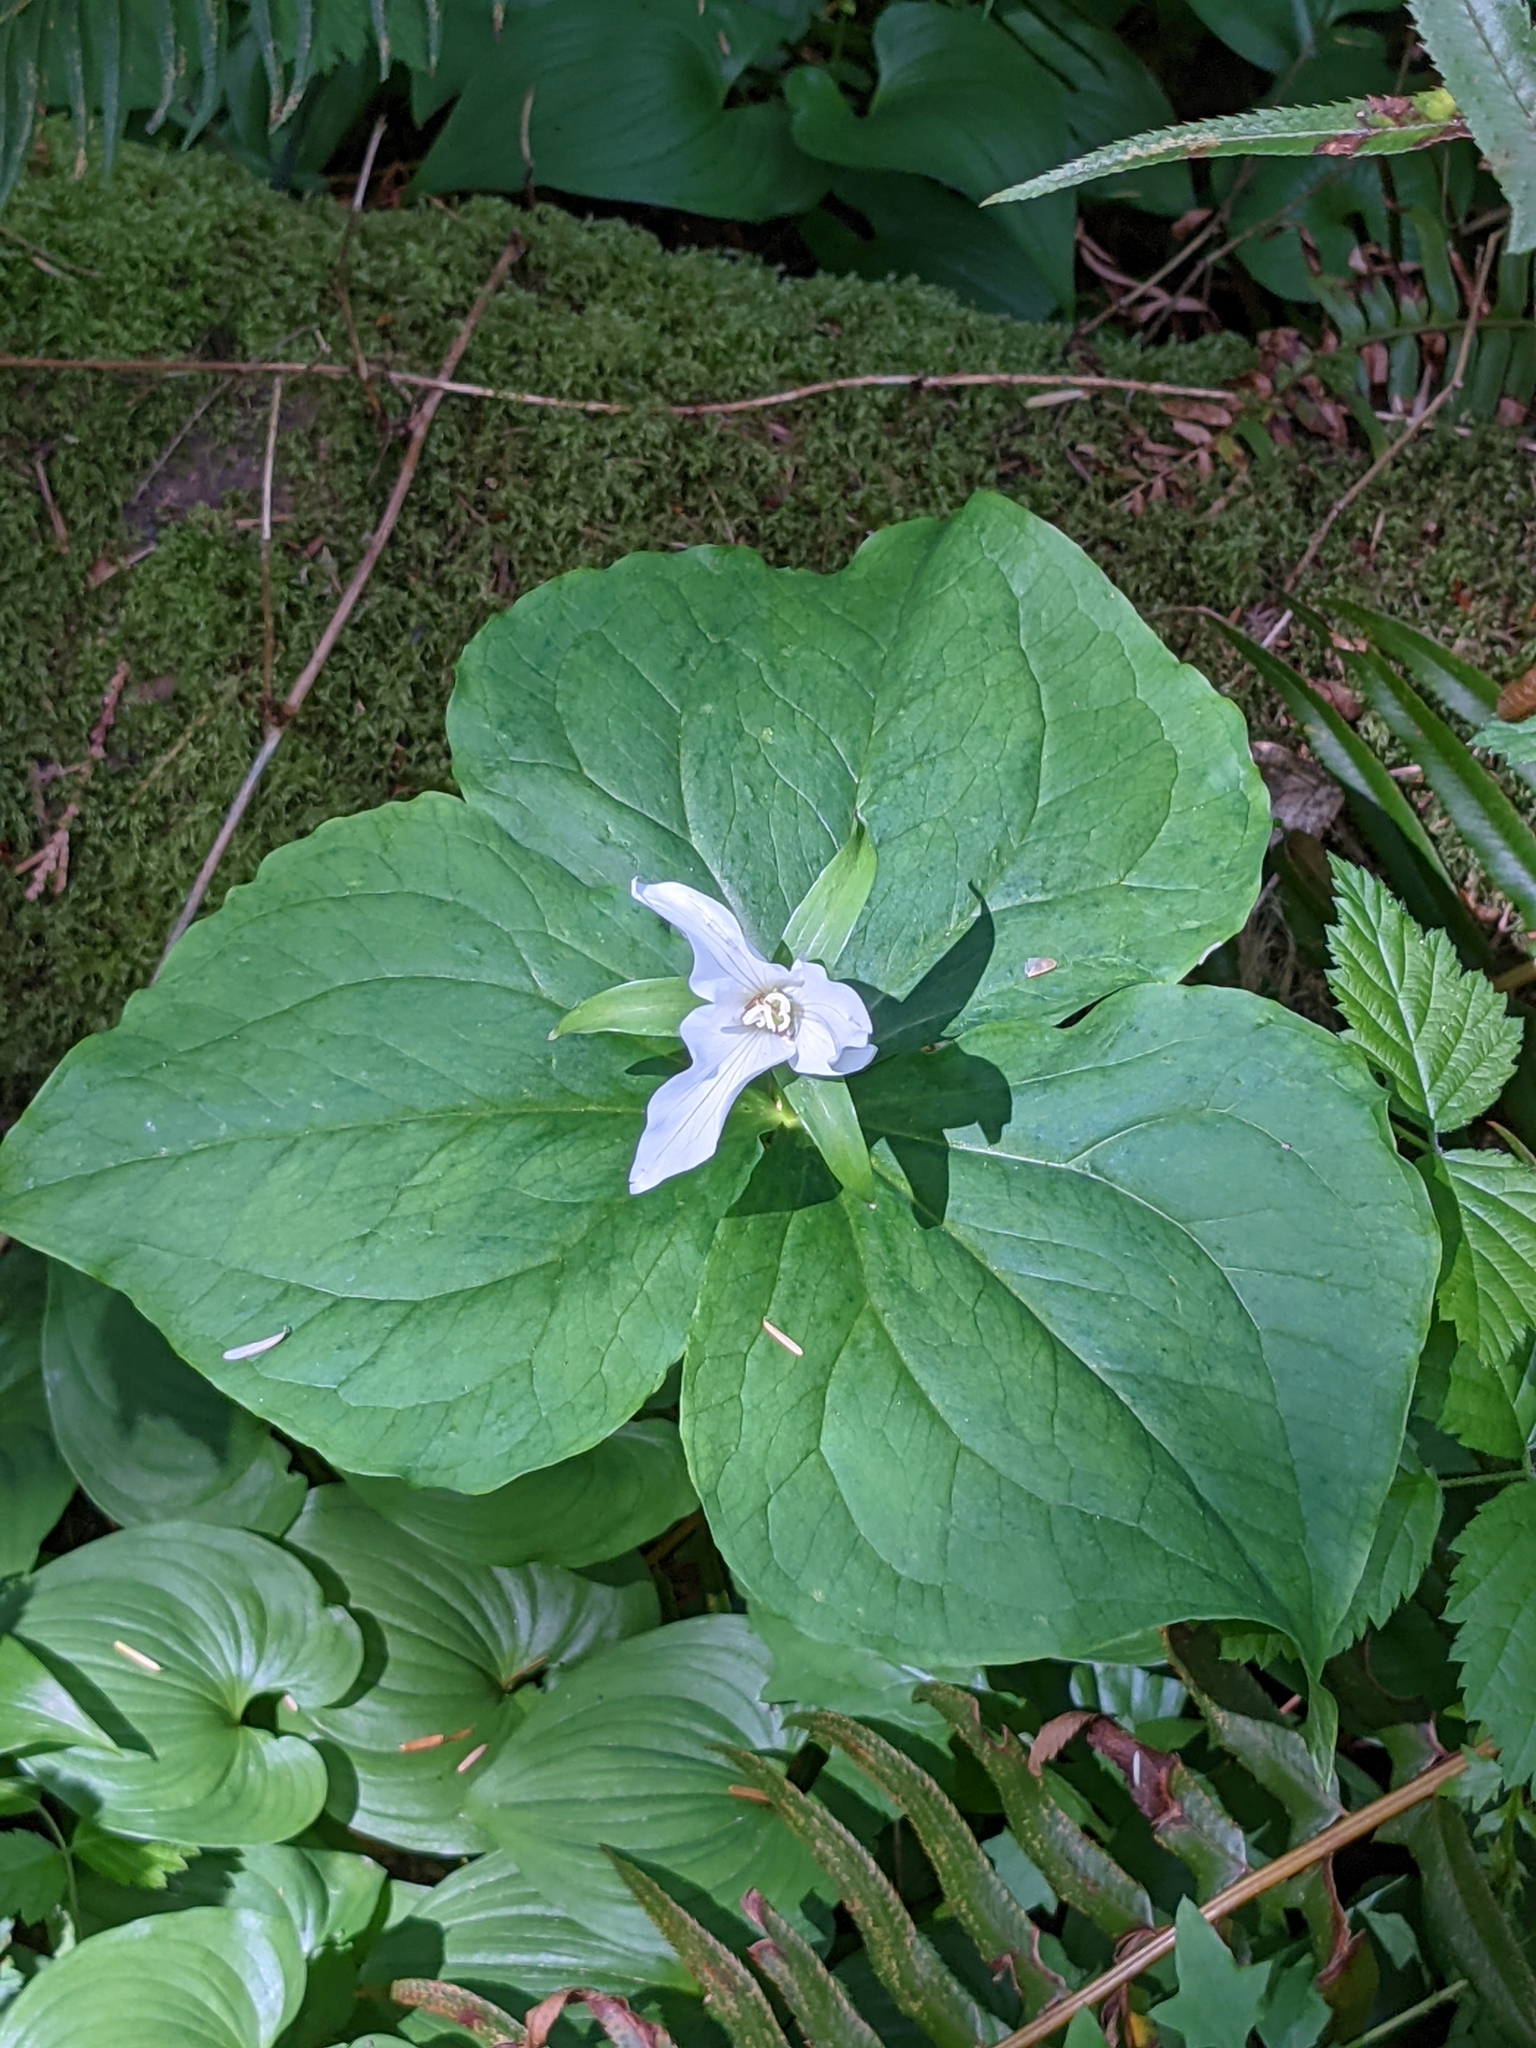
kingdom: Plantae
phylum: Tracheophyta
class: Liliopsida
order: Liliales
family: Melanthiaceae
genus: Trillium
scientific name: Trillium ovatum
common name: Pacific trillium
